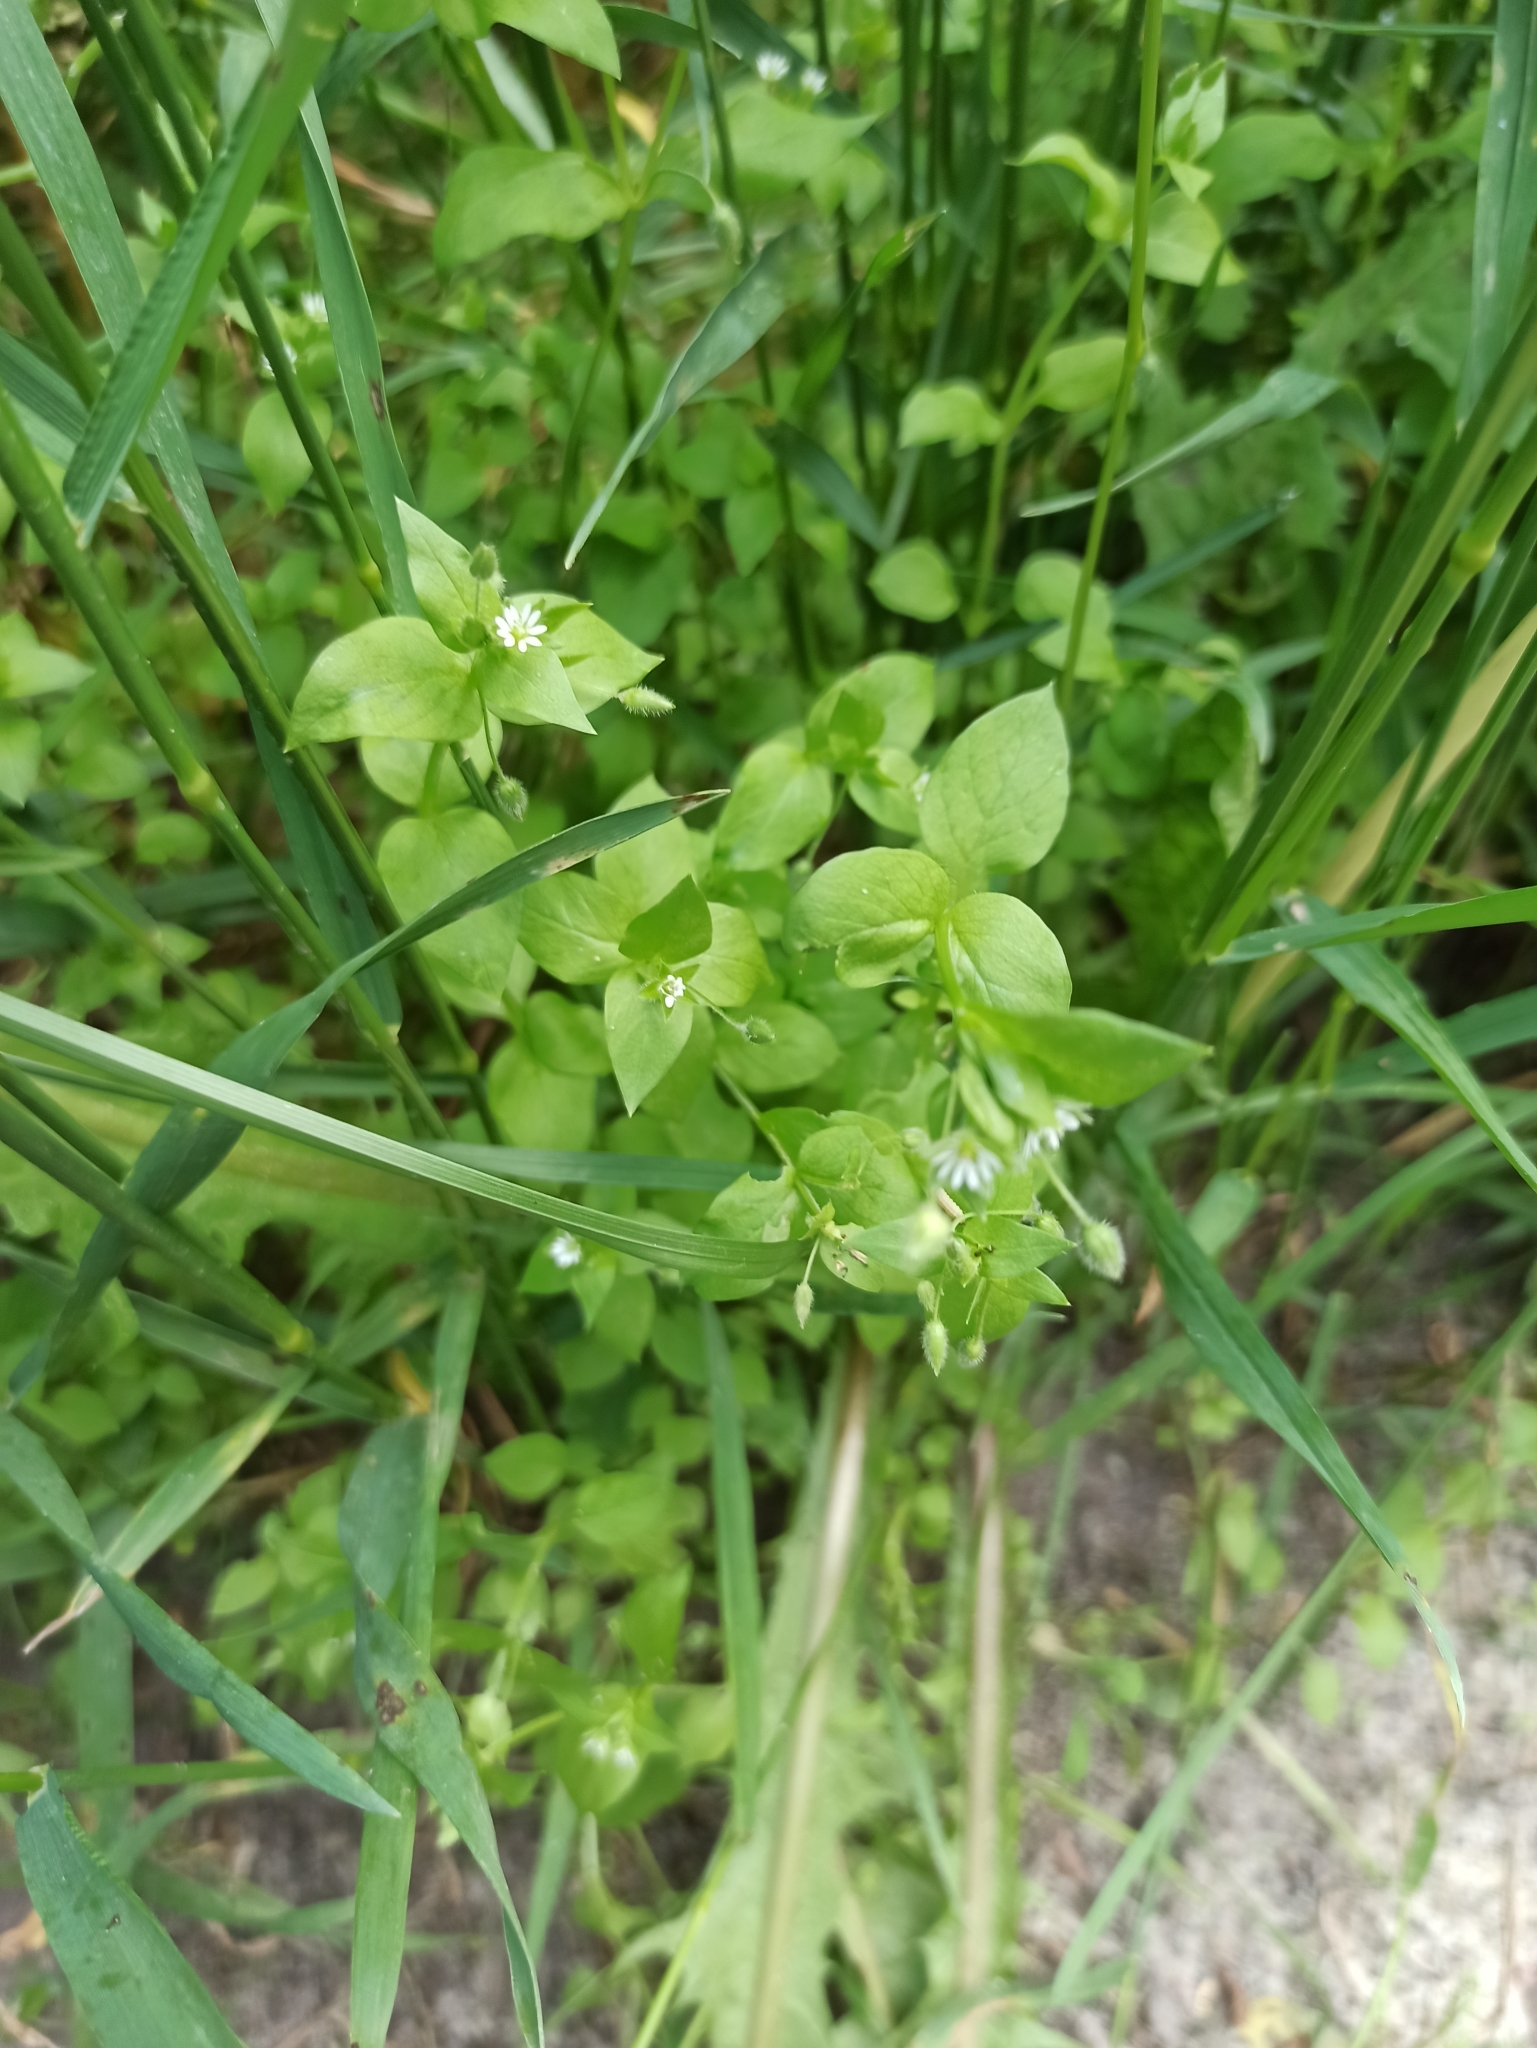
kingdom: Plantae
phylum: Tracheophyta
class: Magnoliopsida
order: Caryophyllales
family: Caryophyllaceae
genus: Stellaria
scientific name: Stellaria media
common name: Common chickweed
